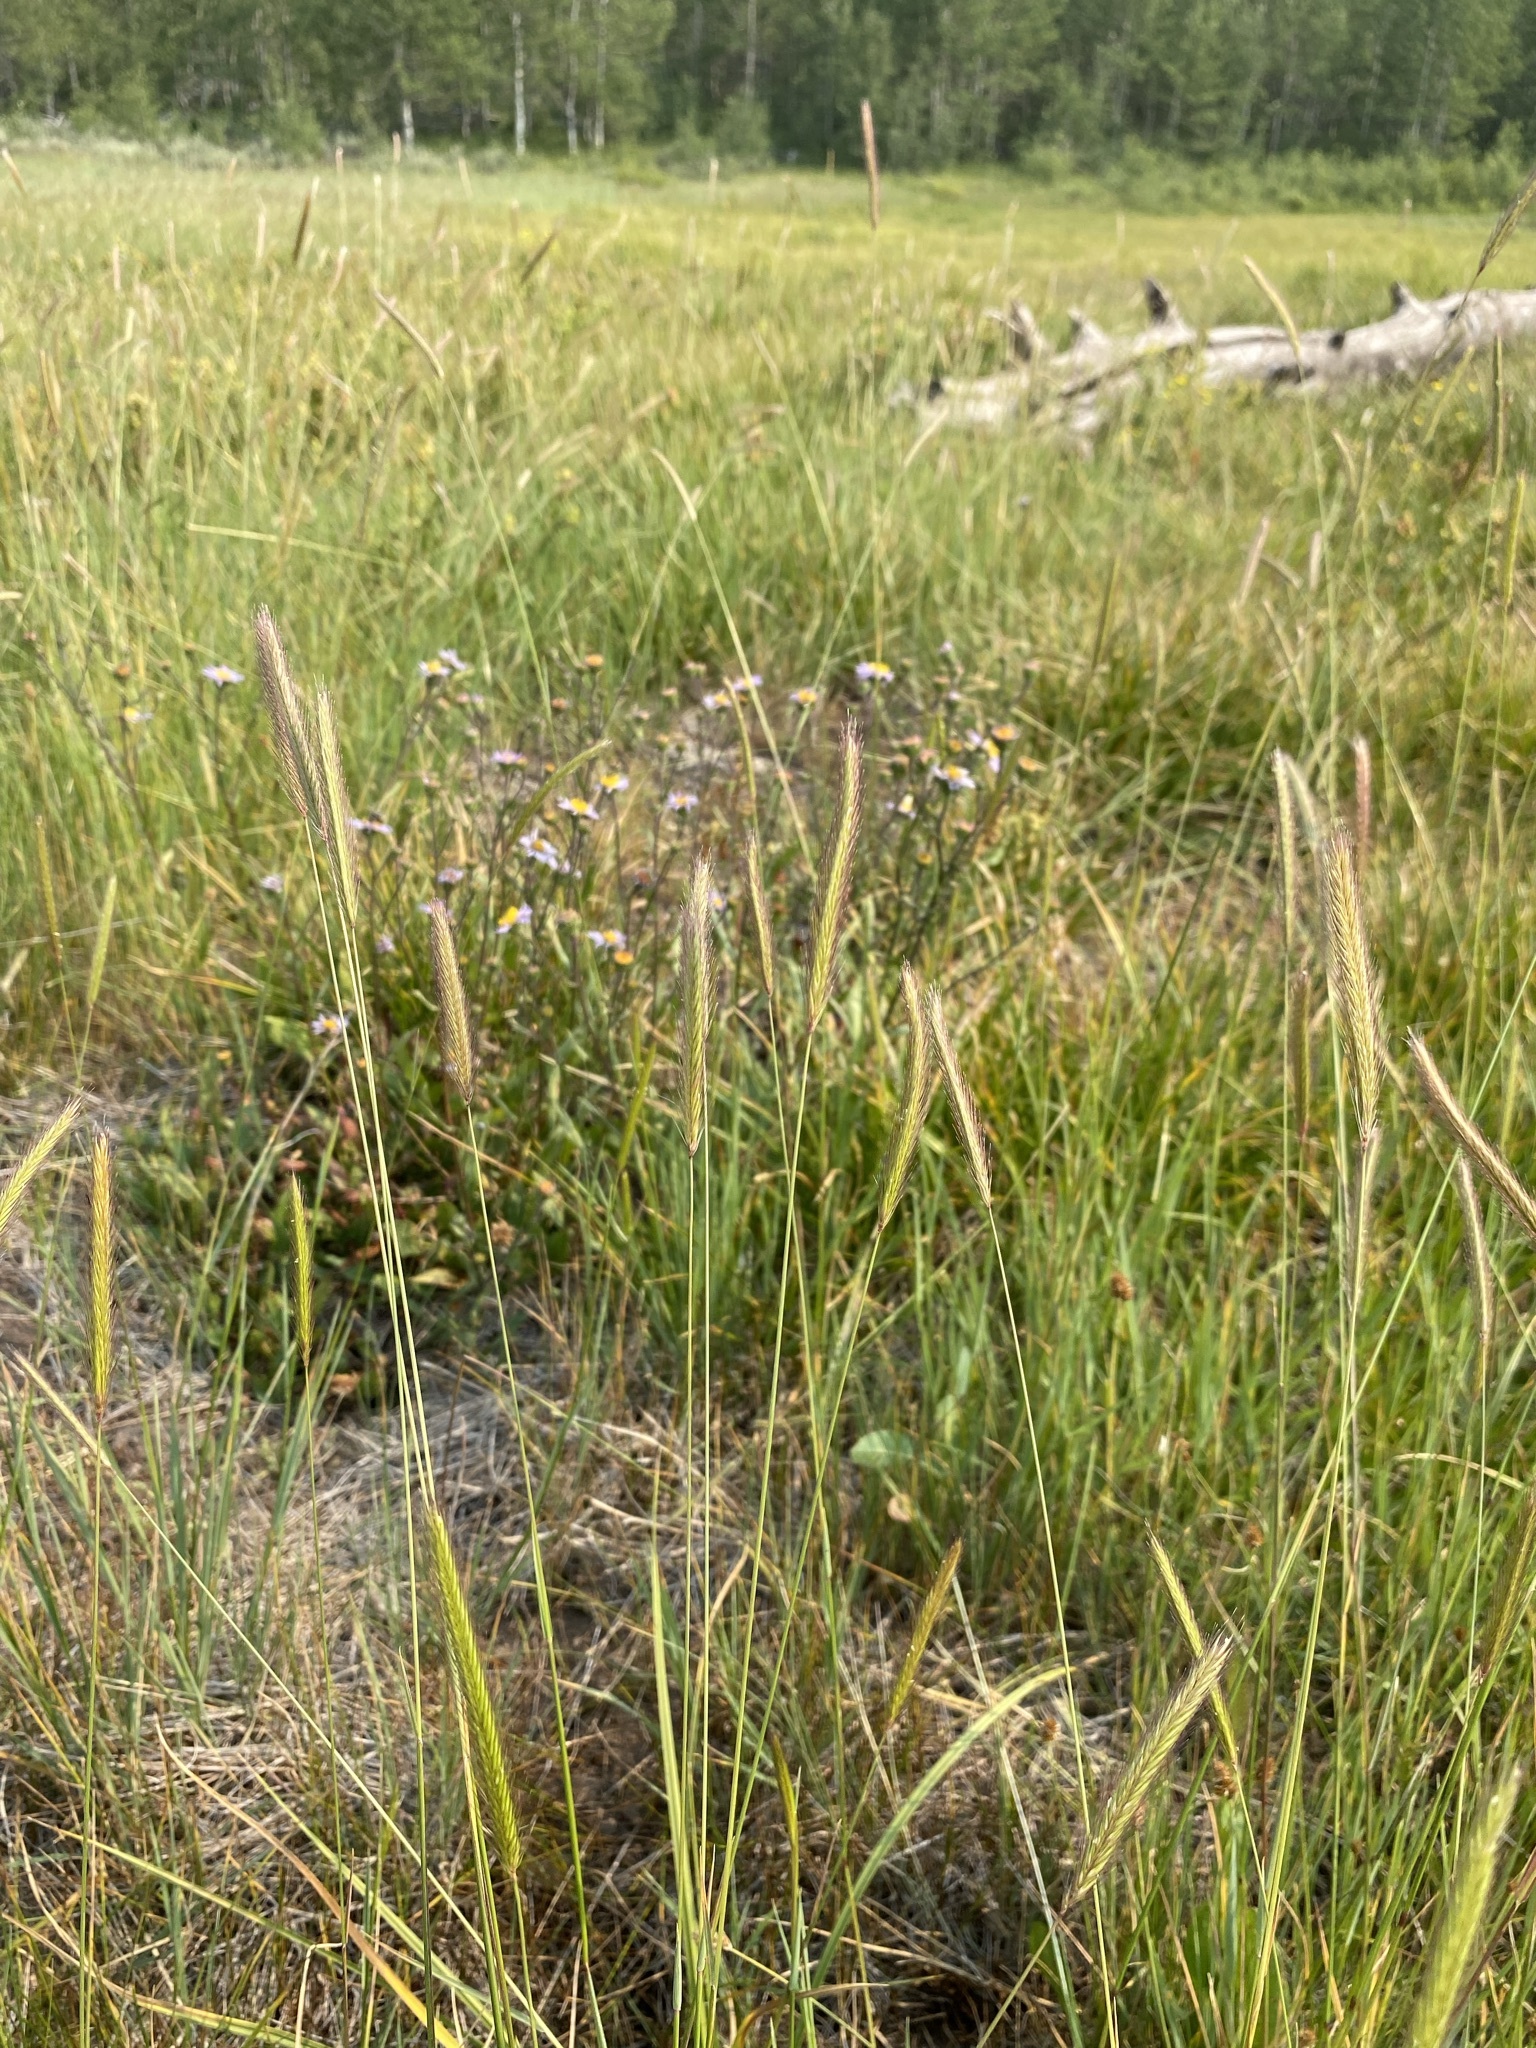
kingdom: Plantae
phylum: Tracheophyta
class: Liliopsida
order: Poales
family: Poaceae
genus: Hordeum
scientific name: Hordeum brachyantherum
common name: Meadow barley
